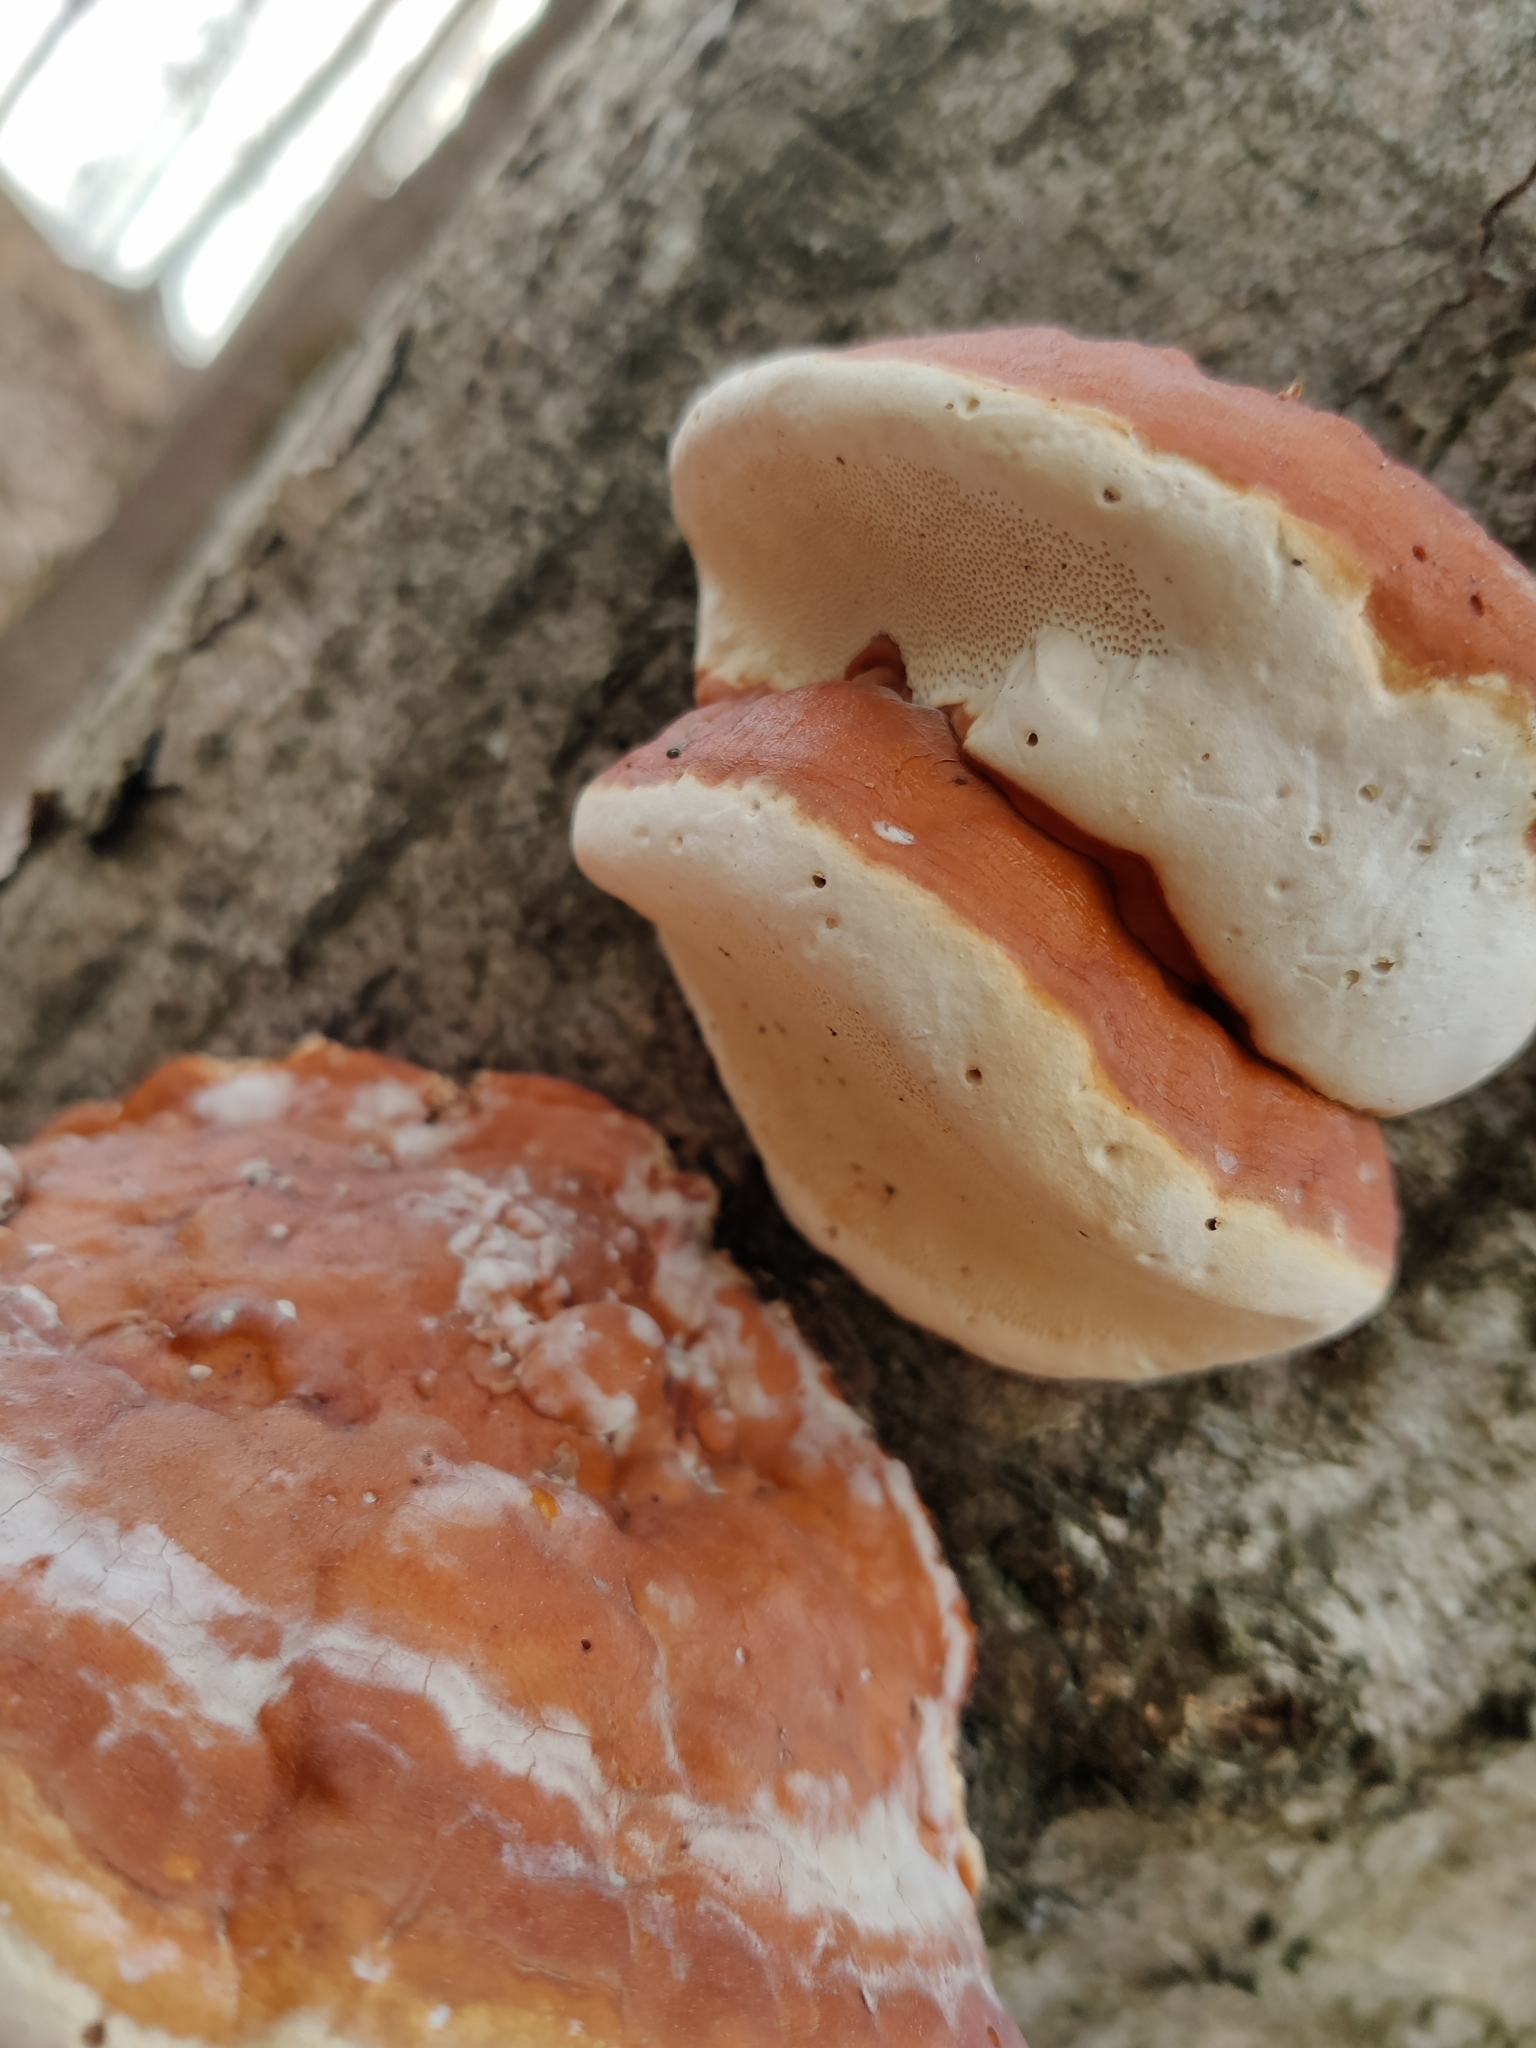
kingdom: Fungi
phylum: Basidiomycota
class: Agaricomycetes
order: Polyporales
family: Fomitopsidaceae
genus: Fomitopsis
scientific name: Fomitopsis pinicola
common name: Red-belted bracket
